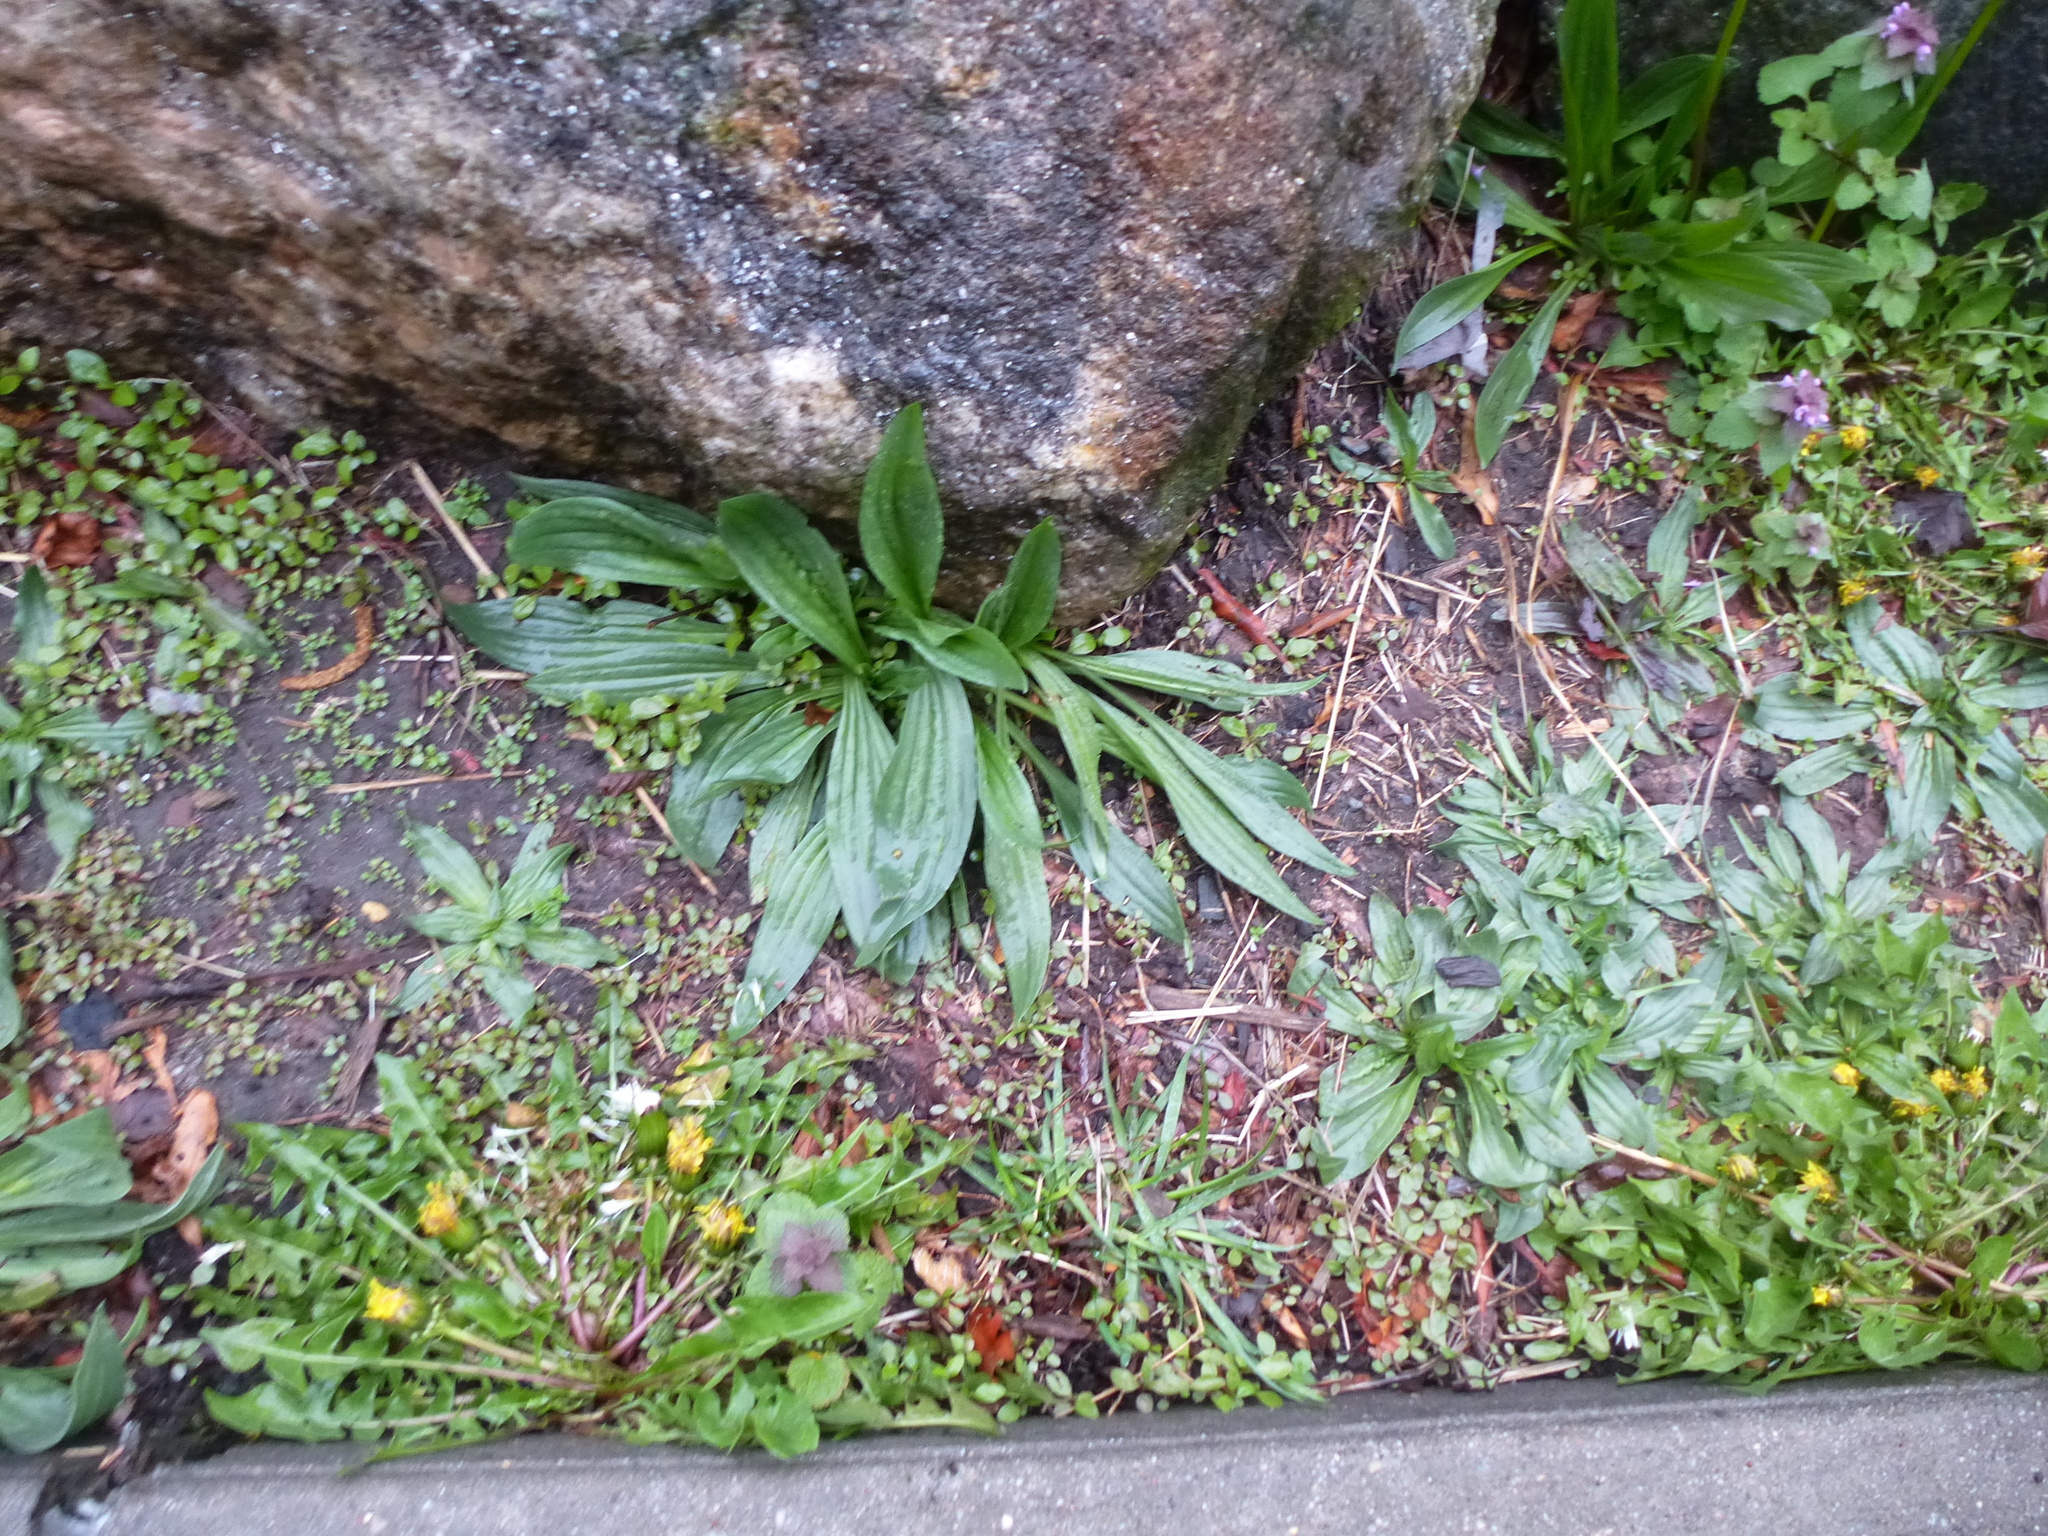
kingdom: Plantae
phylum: Tracheophyta
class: Magnoliopsida
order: Lamiales
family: Plantaginaceae
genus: Plantago
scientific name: Plantago lanceolata
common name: Ribwort plantain
